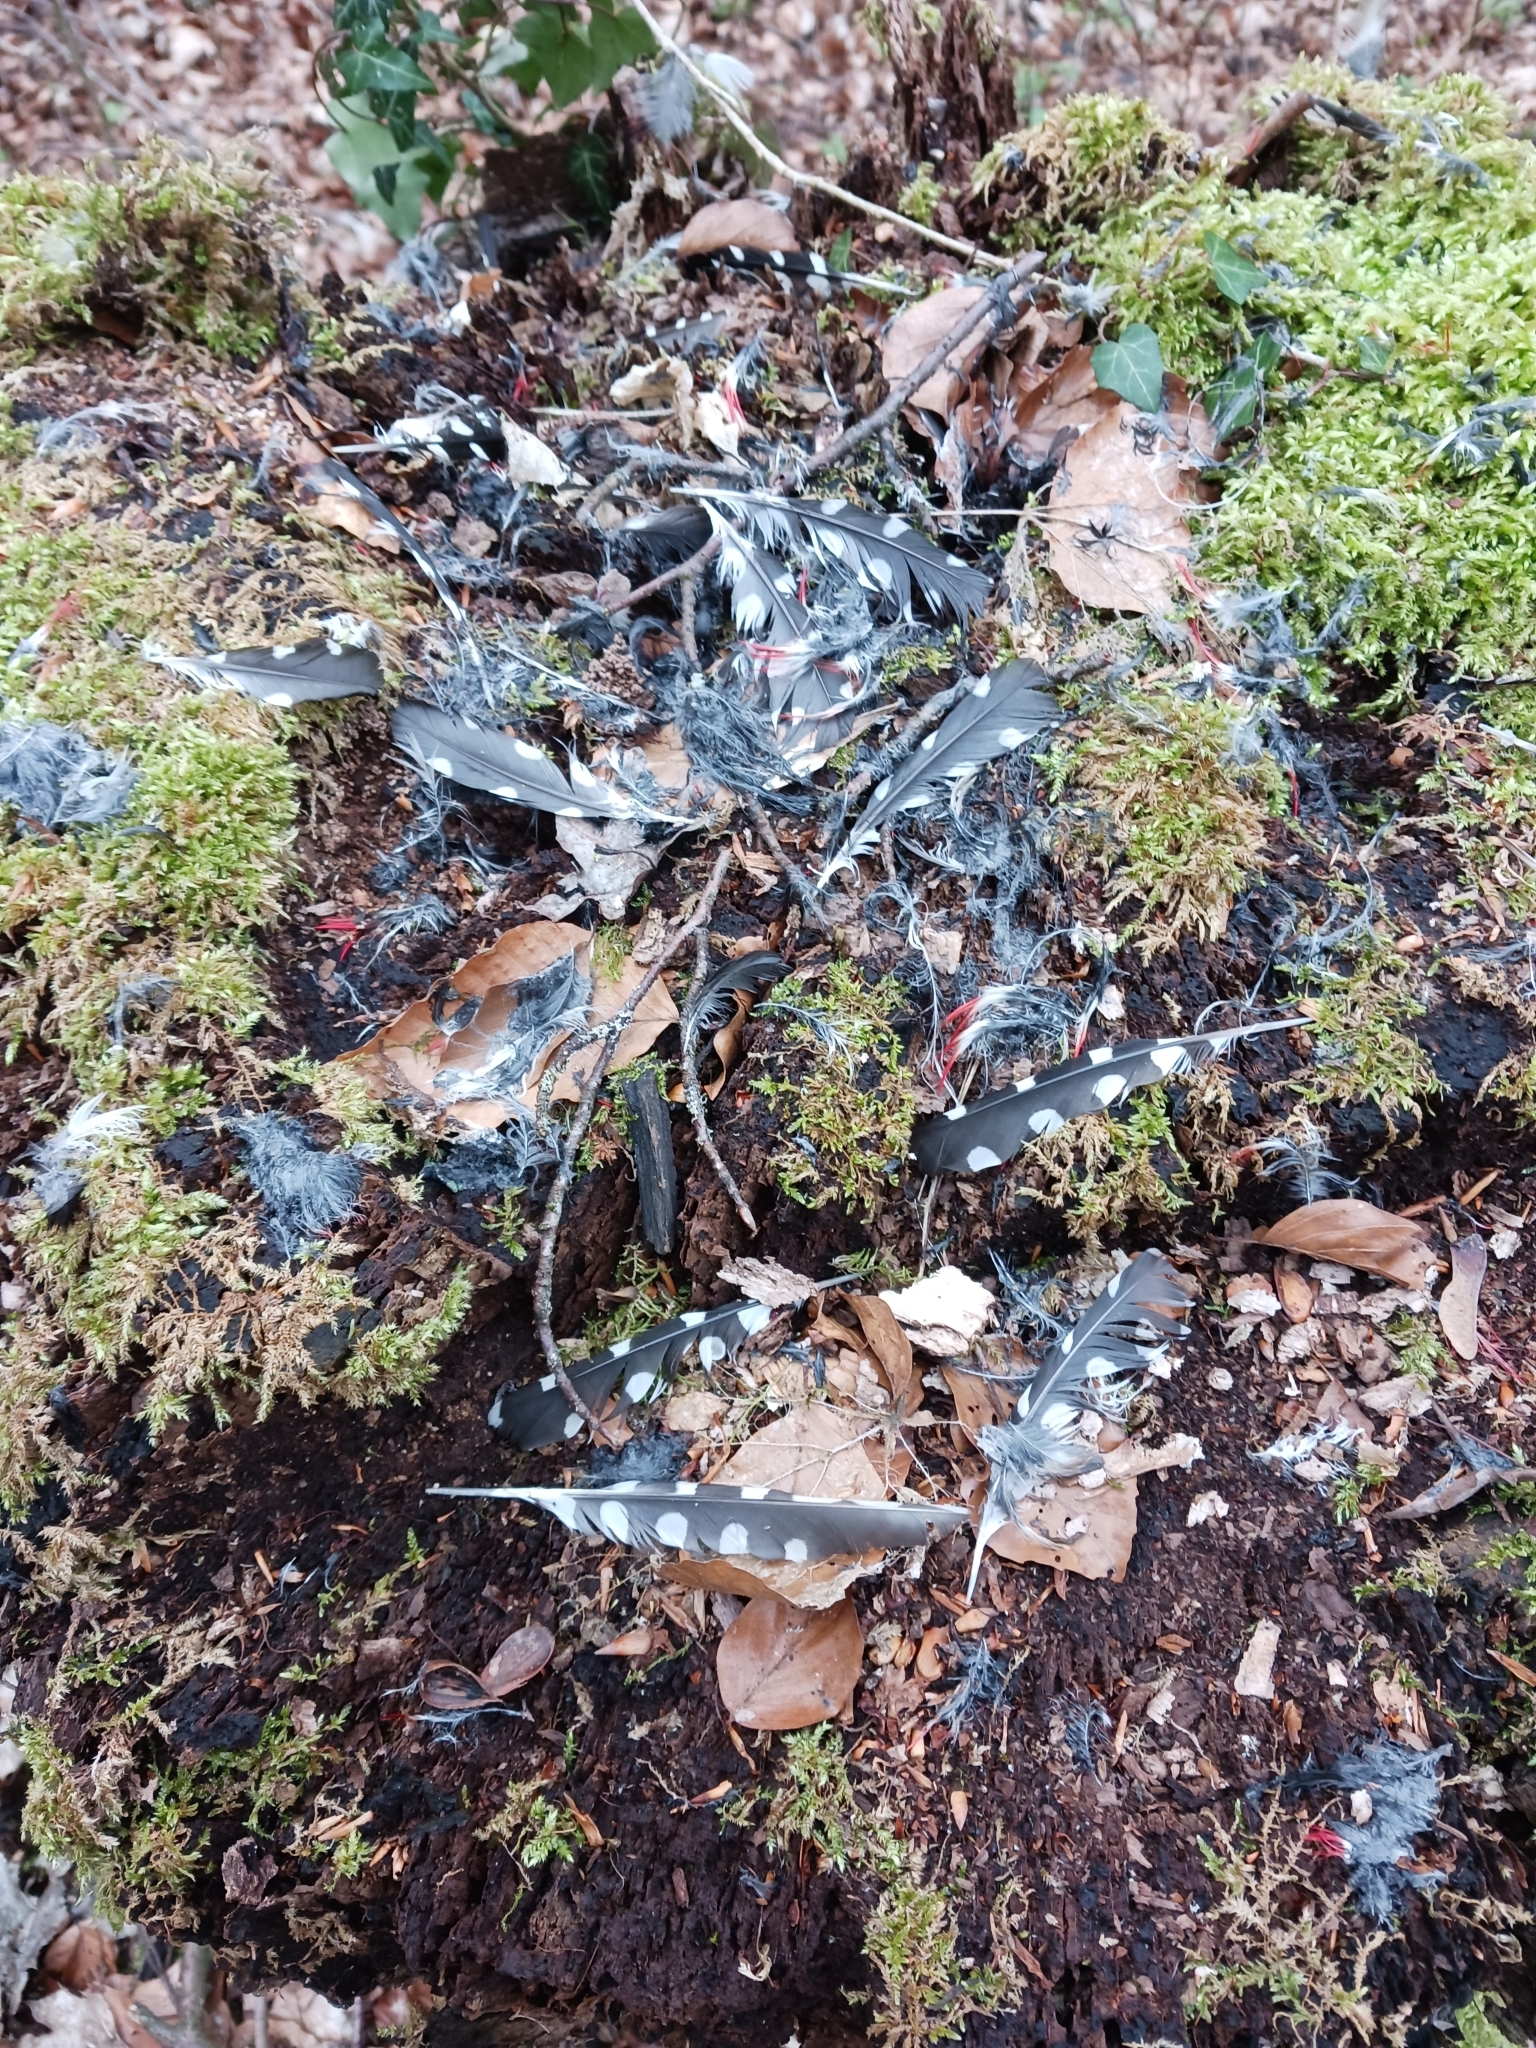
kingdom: Animalia
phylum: Chordata
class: Aves
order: Piciformes
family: Picidae
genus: Dendrocopos
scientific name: Dendrocopos major
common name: Great spotted woodpecker
